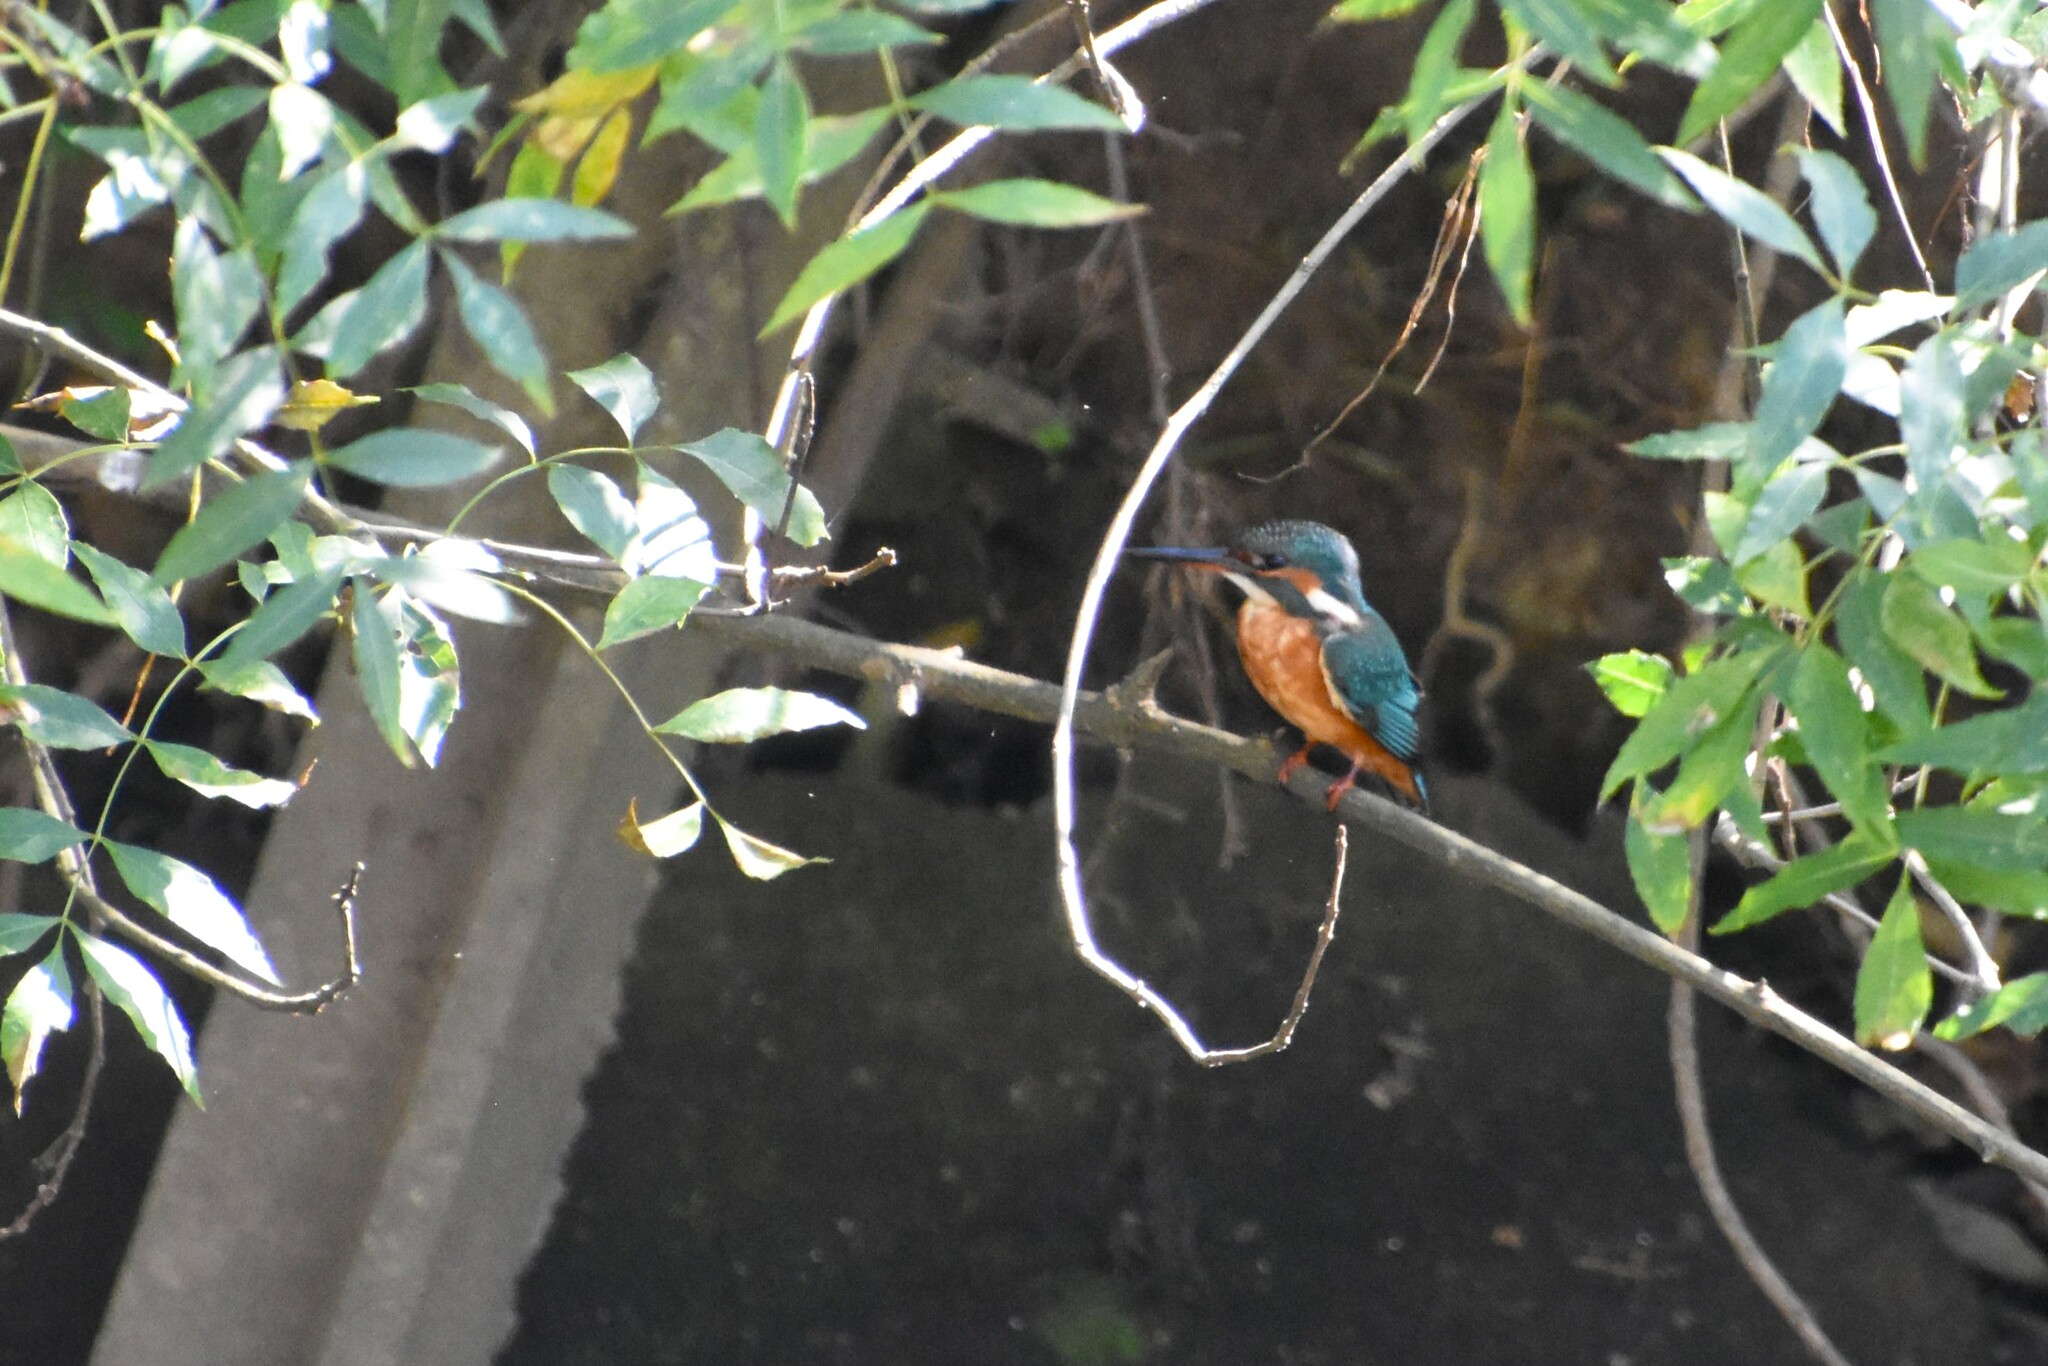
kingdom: Animalia
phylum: Chordata
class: Aves
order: Coraciiformes
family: Alcedinidae
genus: Alcedo
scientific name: Alcedo atthis
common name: Common kingfisher
